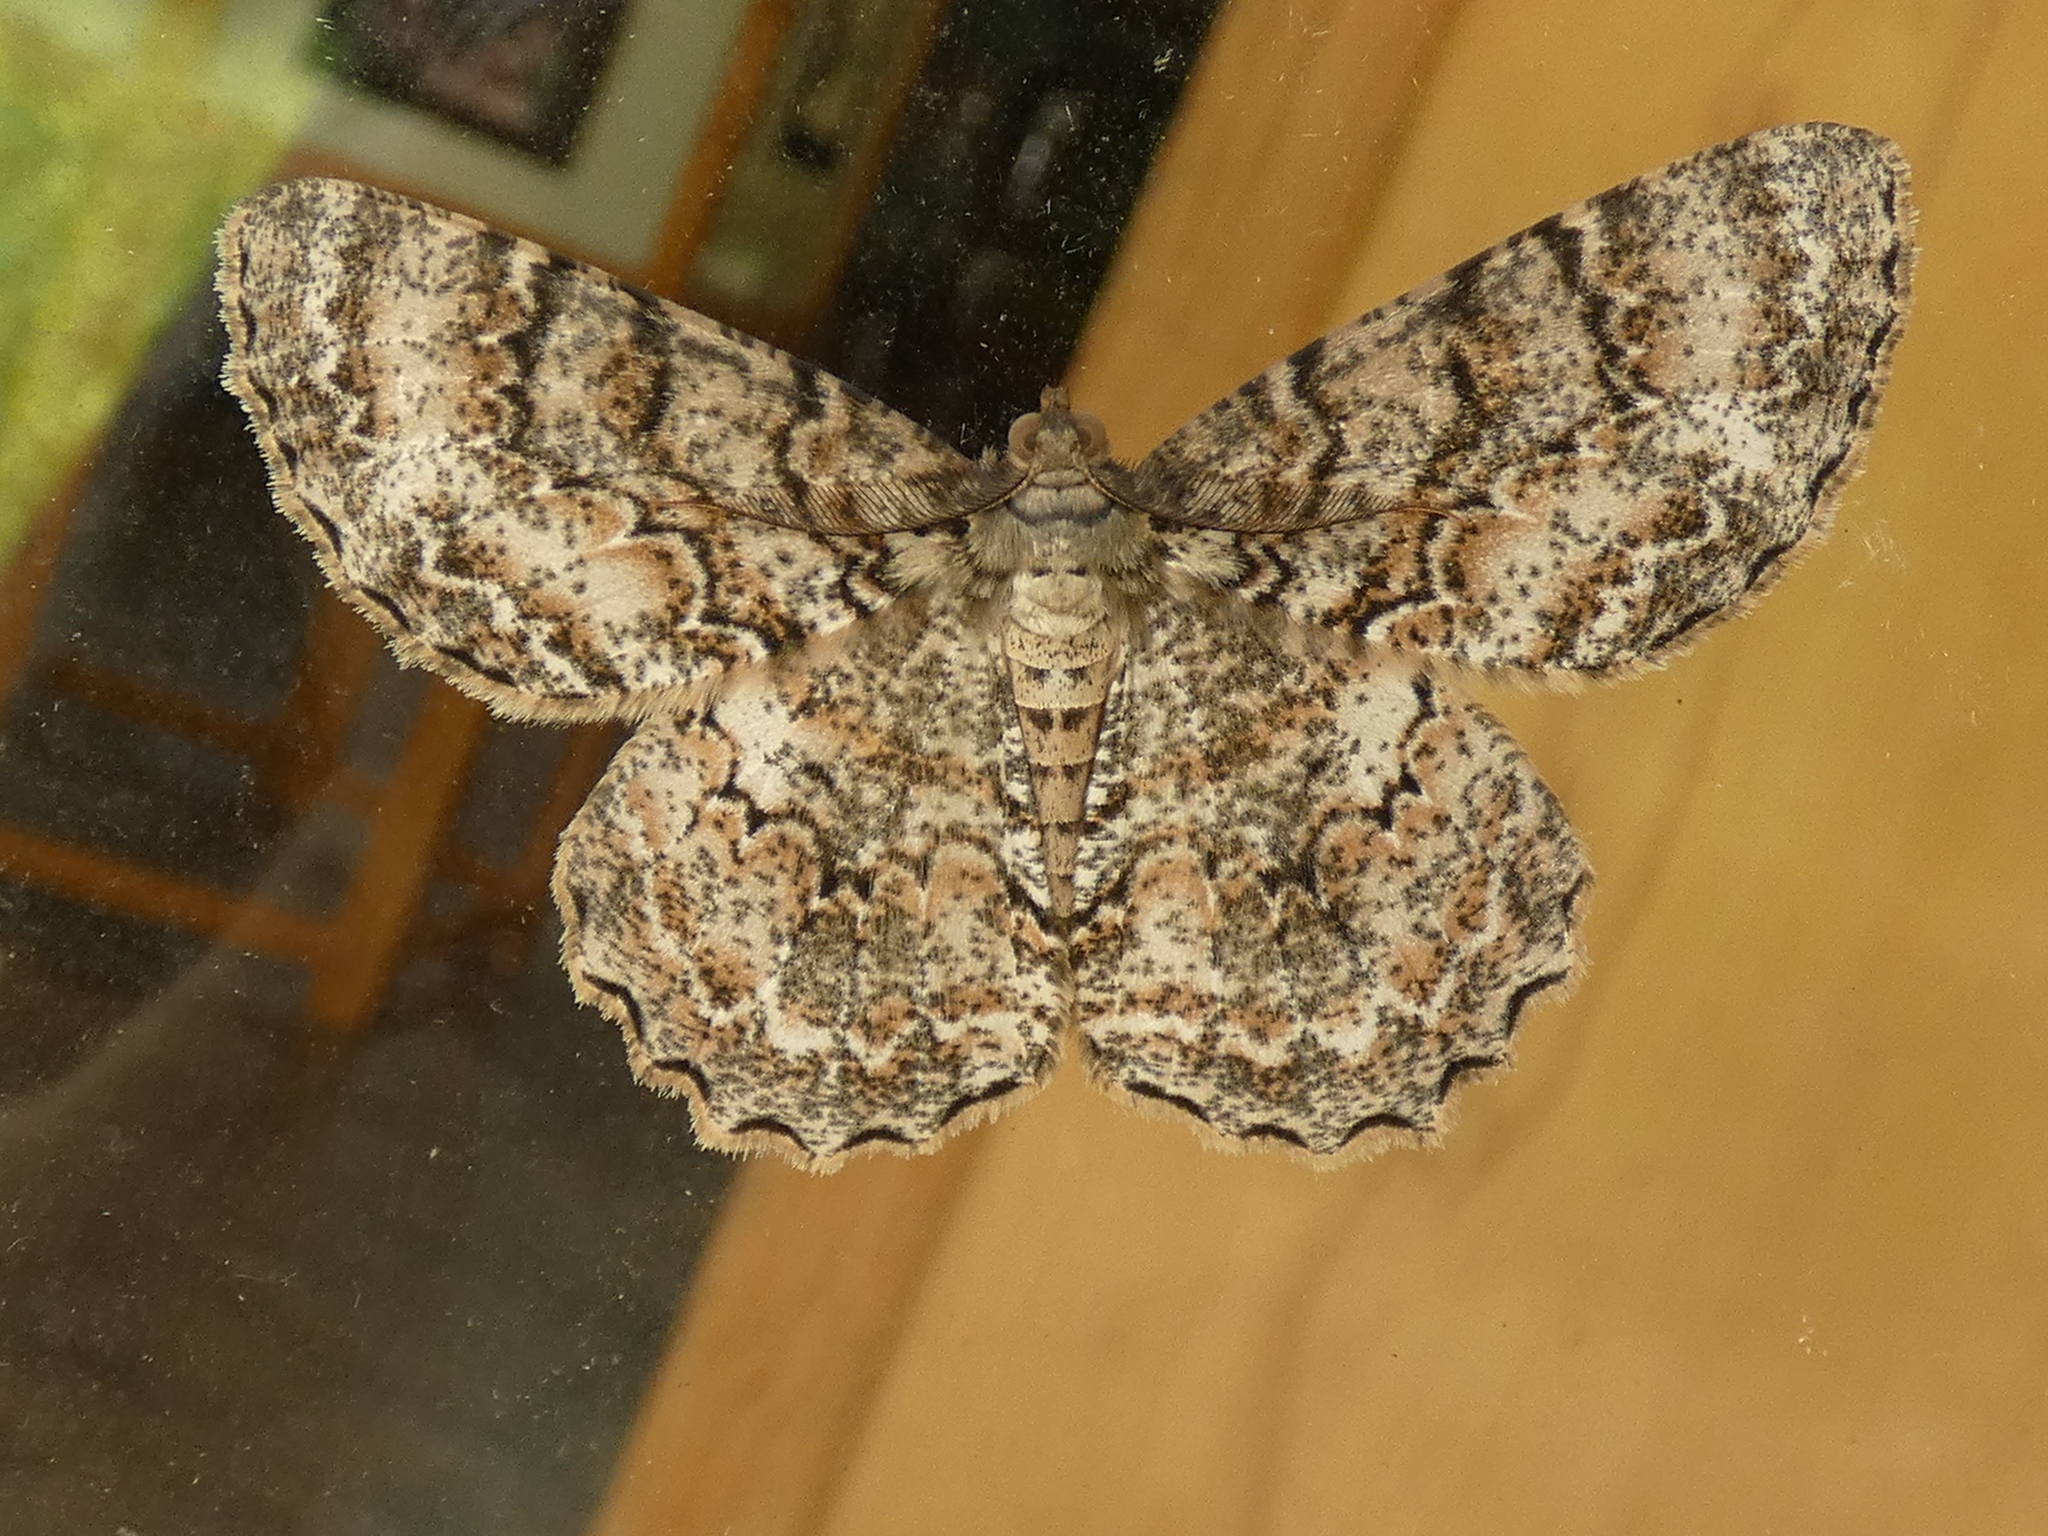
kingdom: Animalia
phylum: Arthropoda
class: Insecta
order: Lepidoptera
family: Geometridae
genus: Epimecis
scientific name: Epimecis hortaria
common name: Tulip-tree beauty
